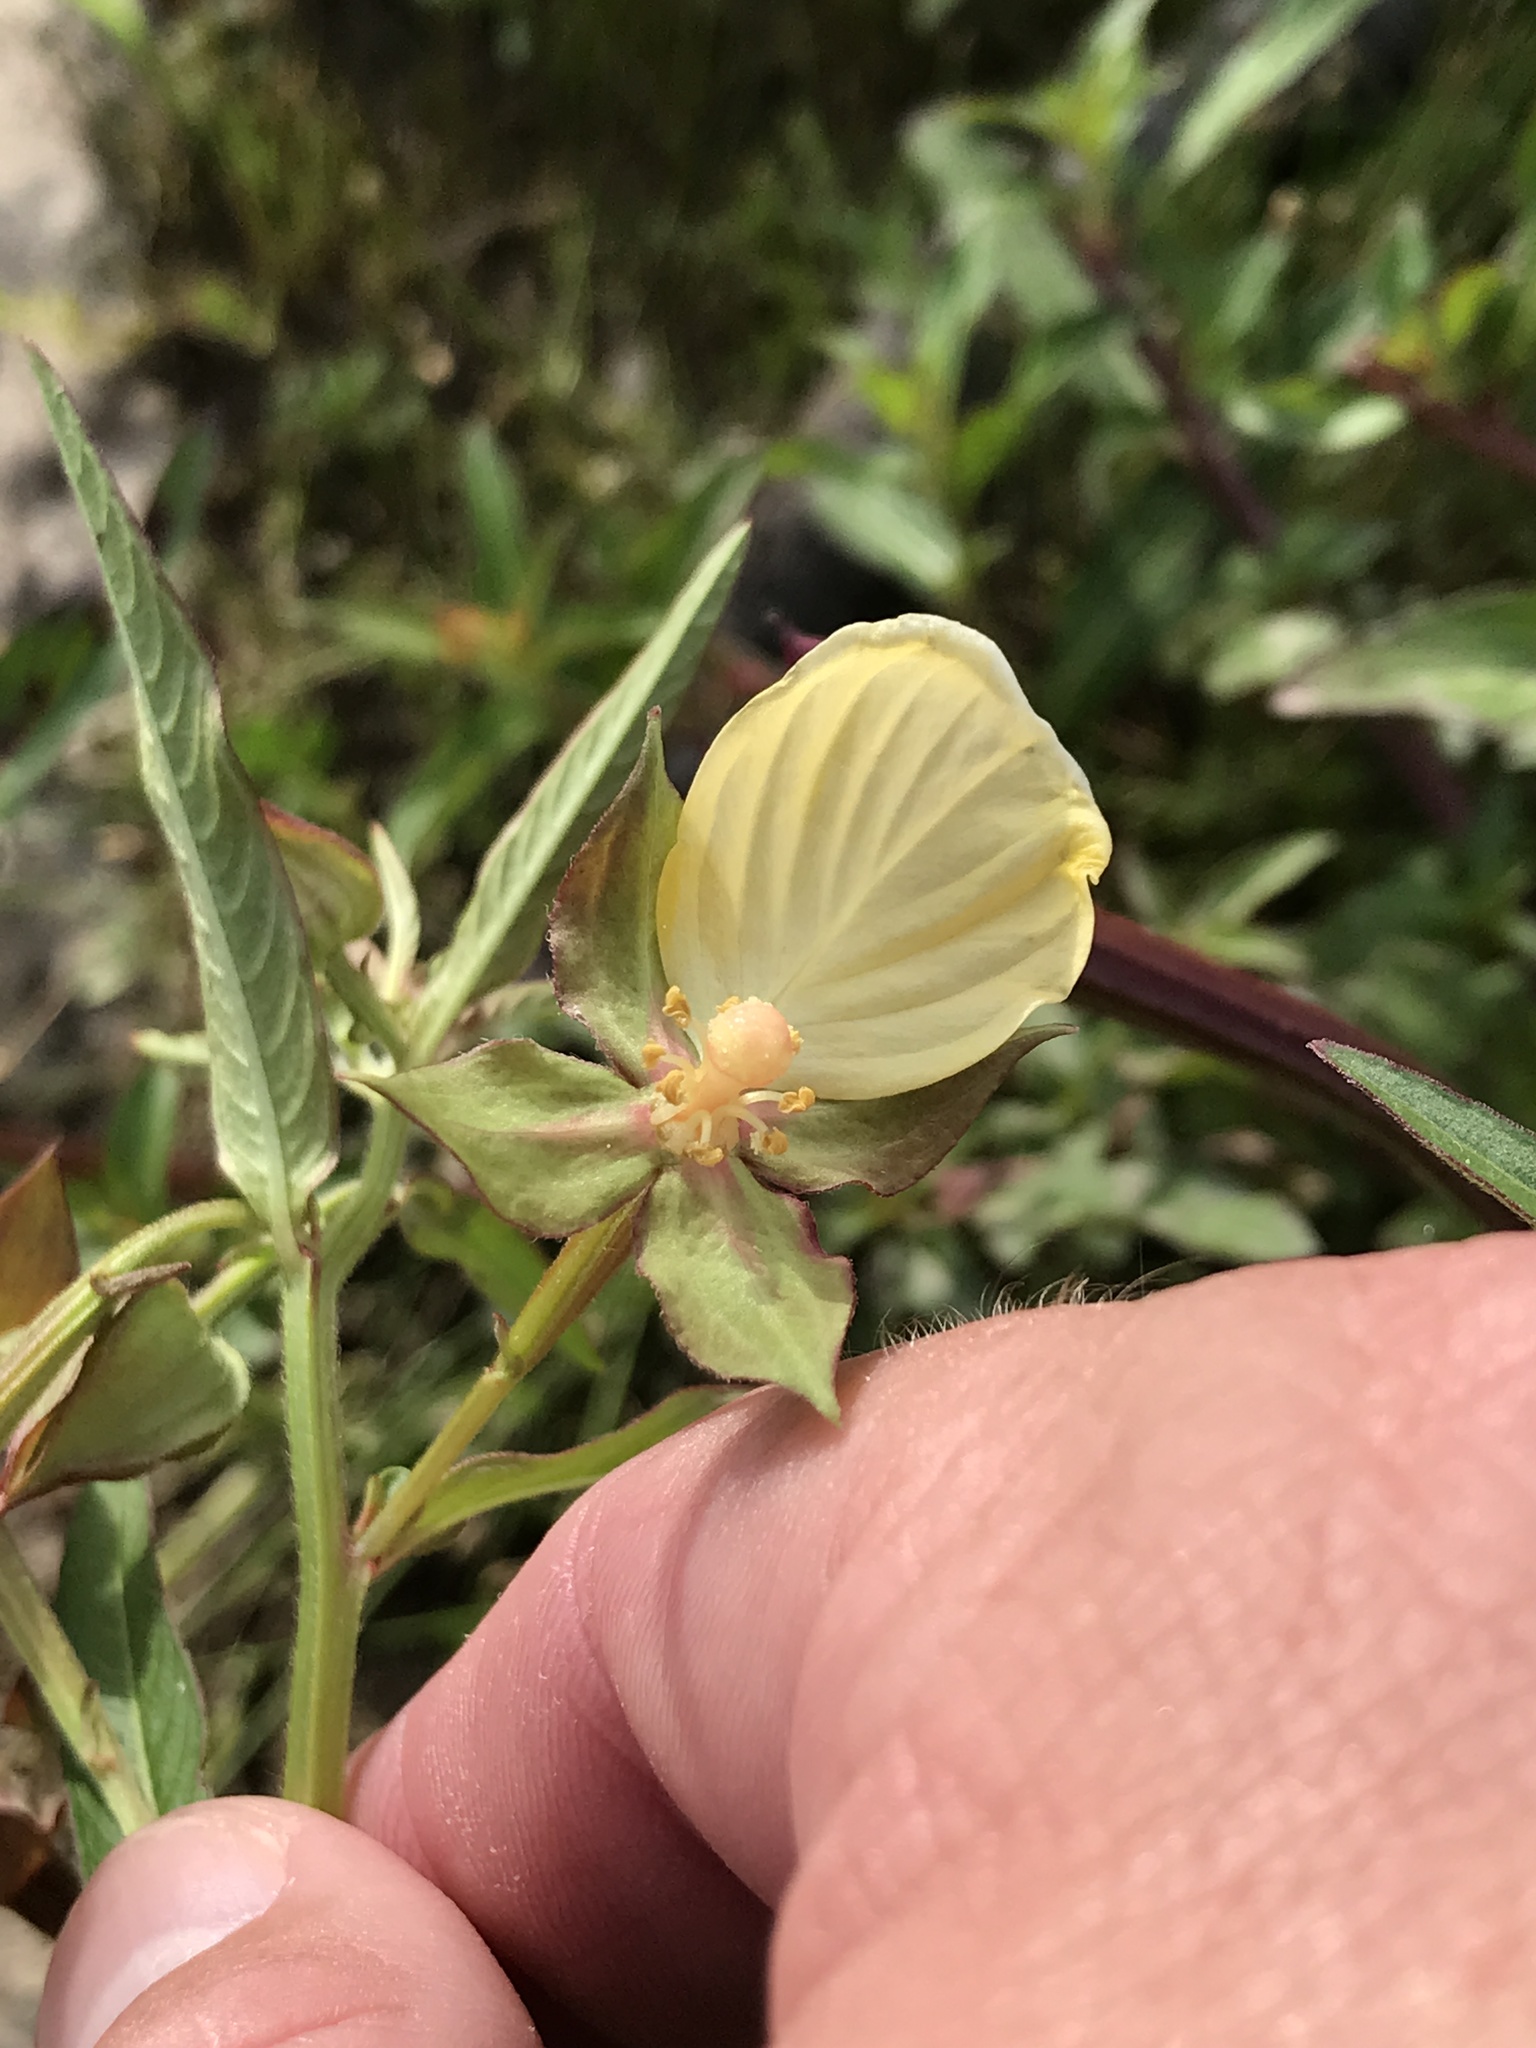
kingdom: Plantae
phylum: Tracheophyta
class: Magnoliopsida
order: Myrtales
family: Onagraceae
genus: Ludwigia
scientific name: Ludwigia octovalvis
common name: Water-primrose
